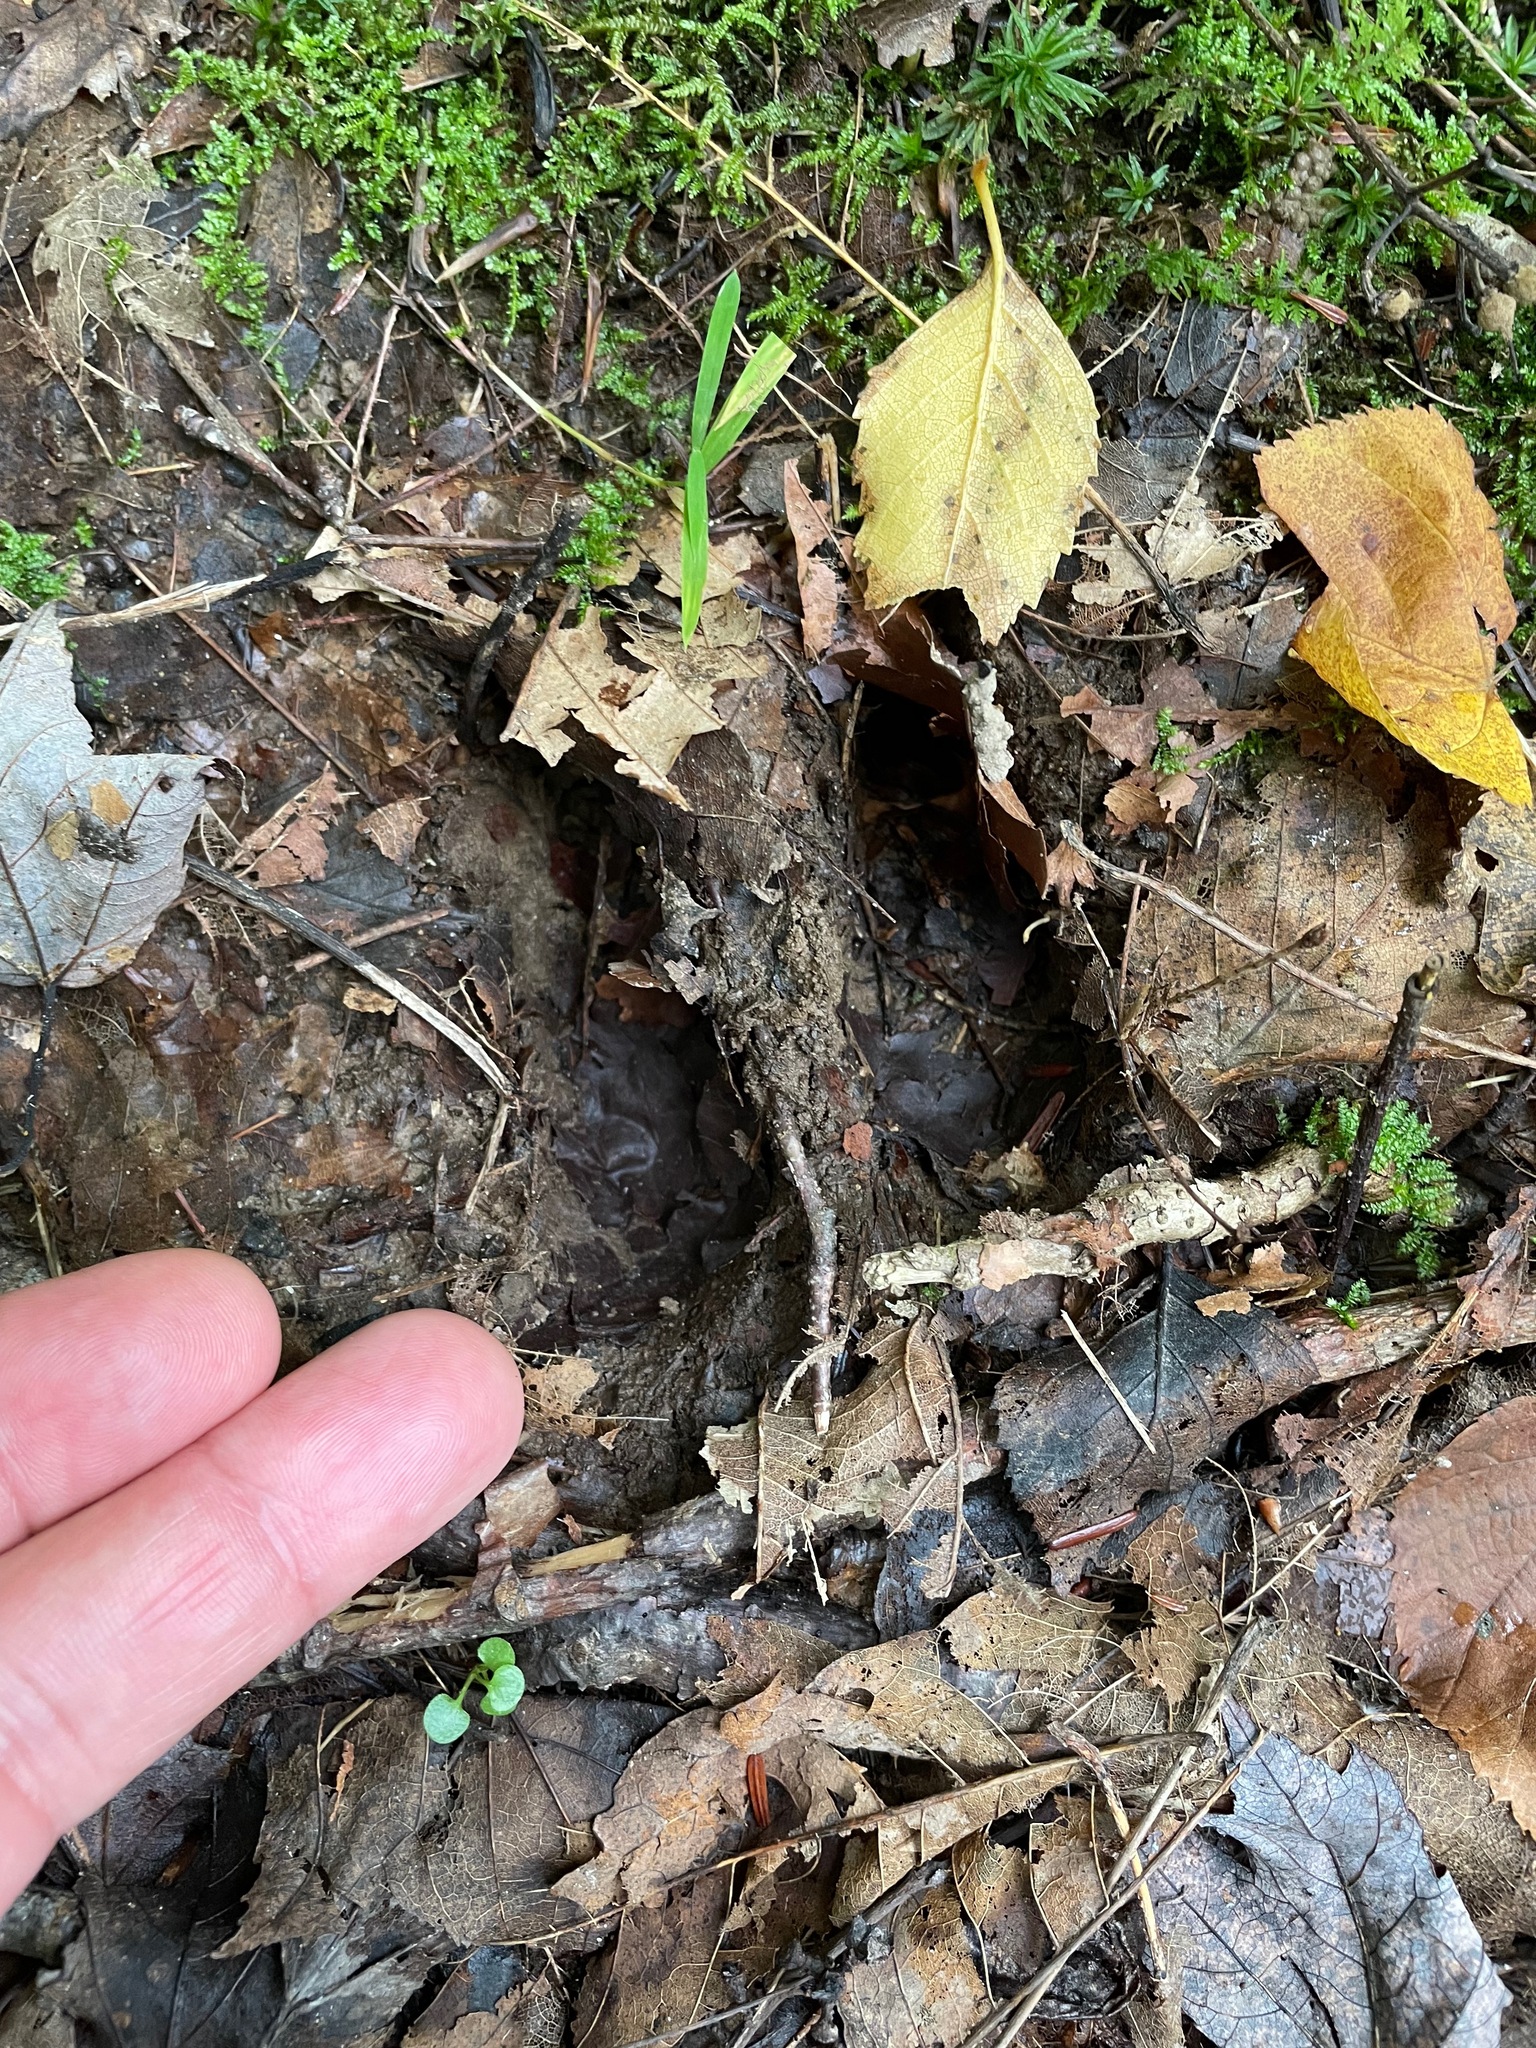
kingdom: Animalia
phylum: Chordata
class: Mammalia
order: Artiodactyla
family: Cervidae
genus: Odocoileus
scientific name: Odocoileus virginianus
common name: White-tailed deer
